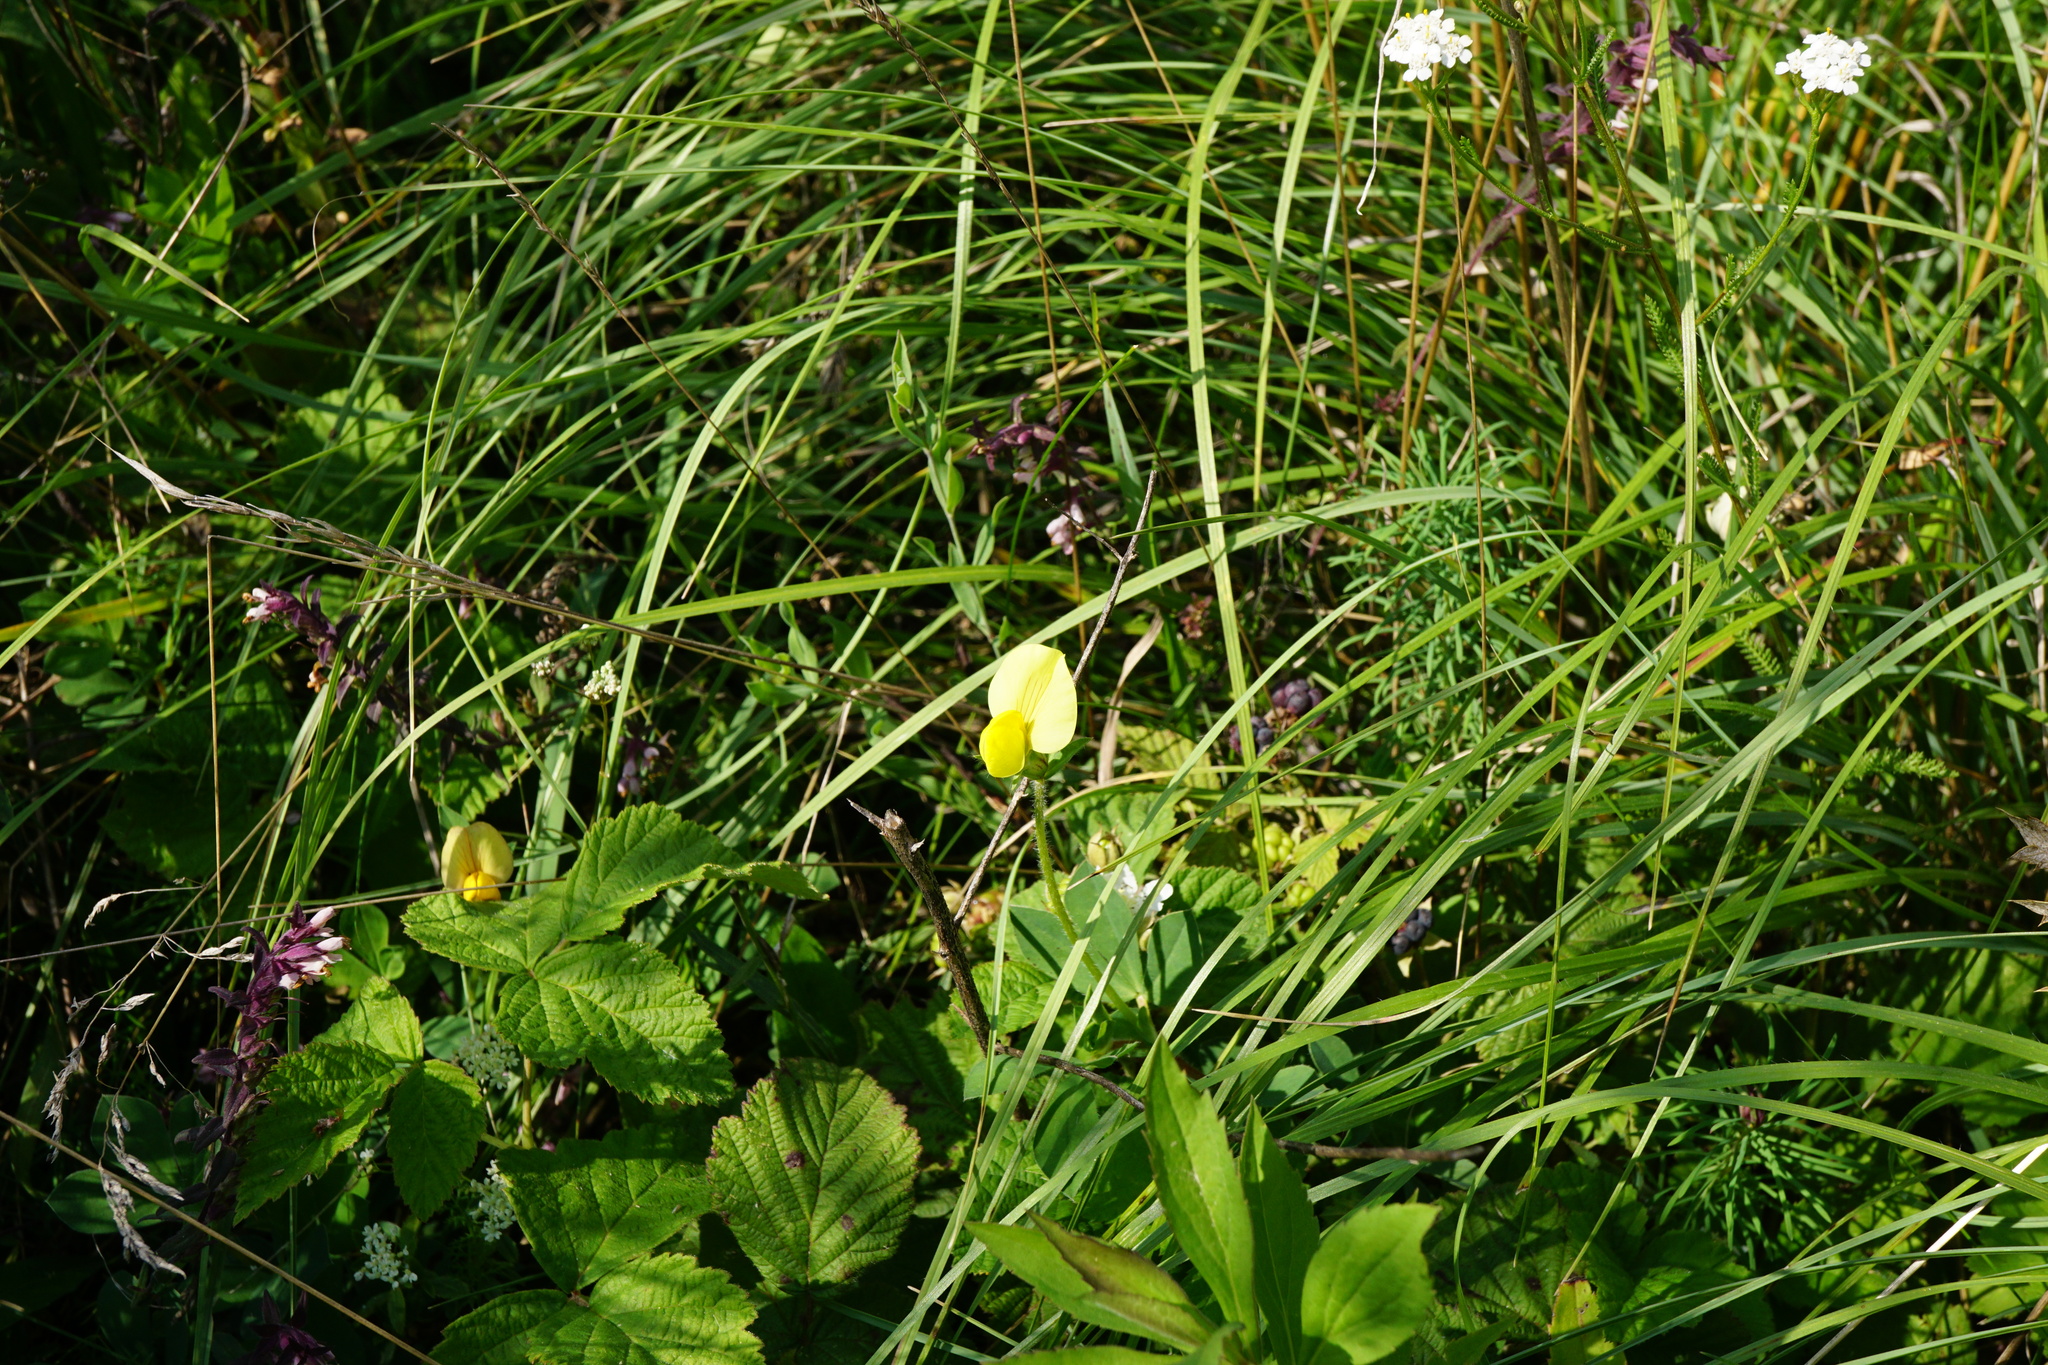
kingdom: Plantae
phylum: Tracheophyta
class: Magnoliopsida
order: Fabales
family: Fabaceae
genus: Lotus
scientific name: Lotus maritimus
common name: Dragon's-teeth
